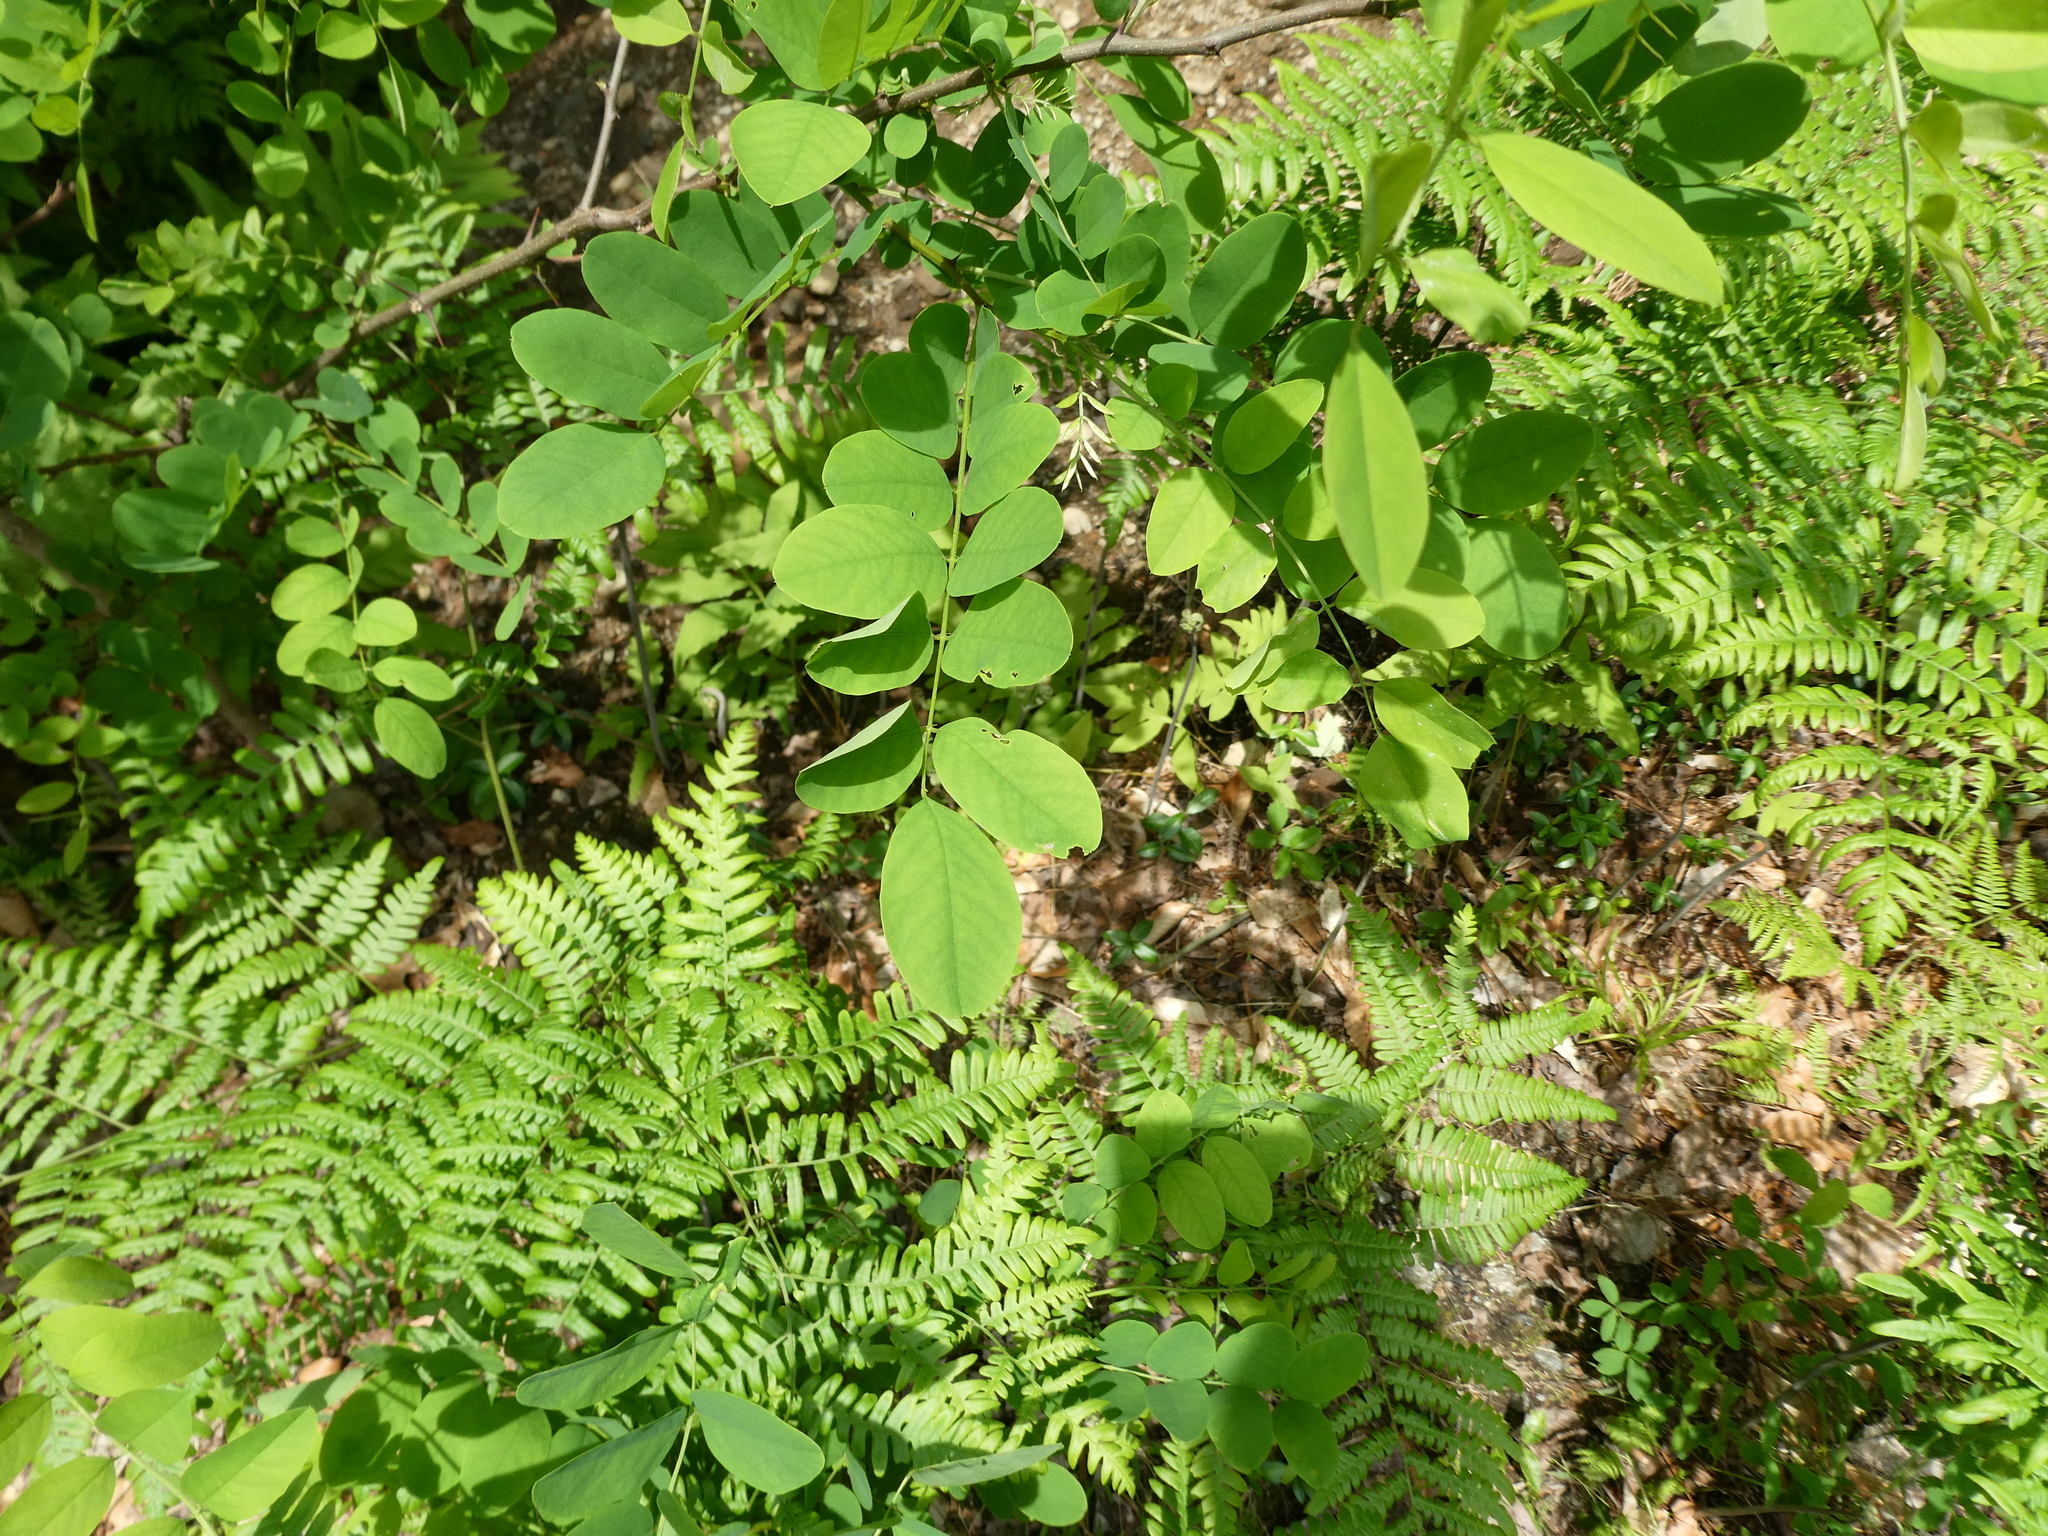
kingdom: Plantae
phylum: Tracheophyta
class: Magnoliopsida
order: Fabales
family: Fabaceae
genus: Robinia
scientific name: Robinia pseudoacacia
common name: Black locust
